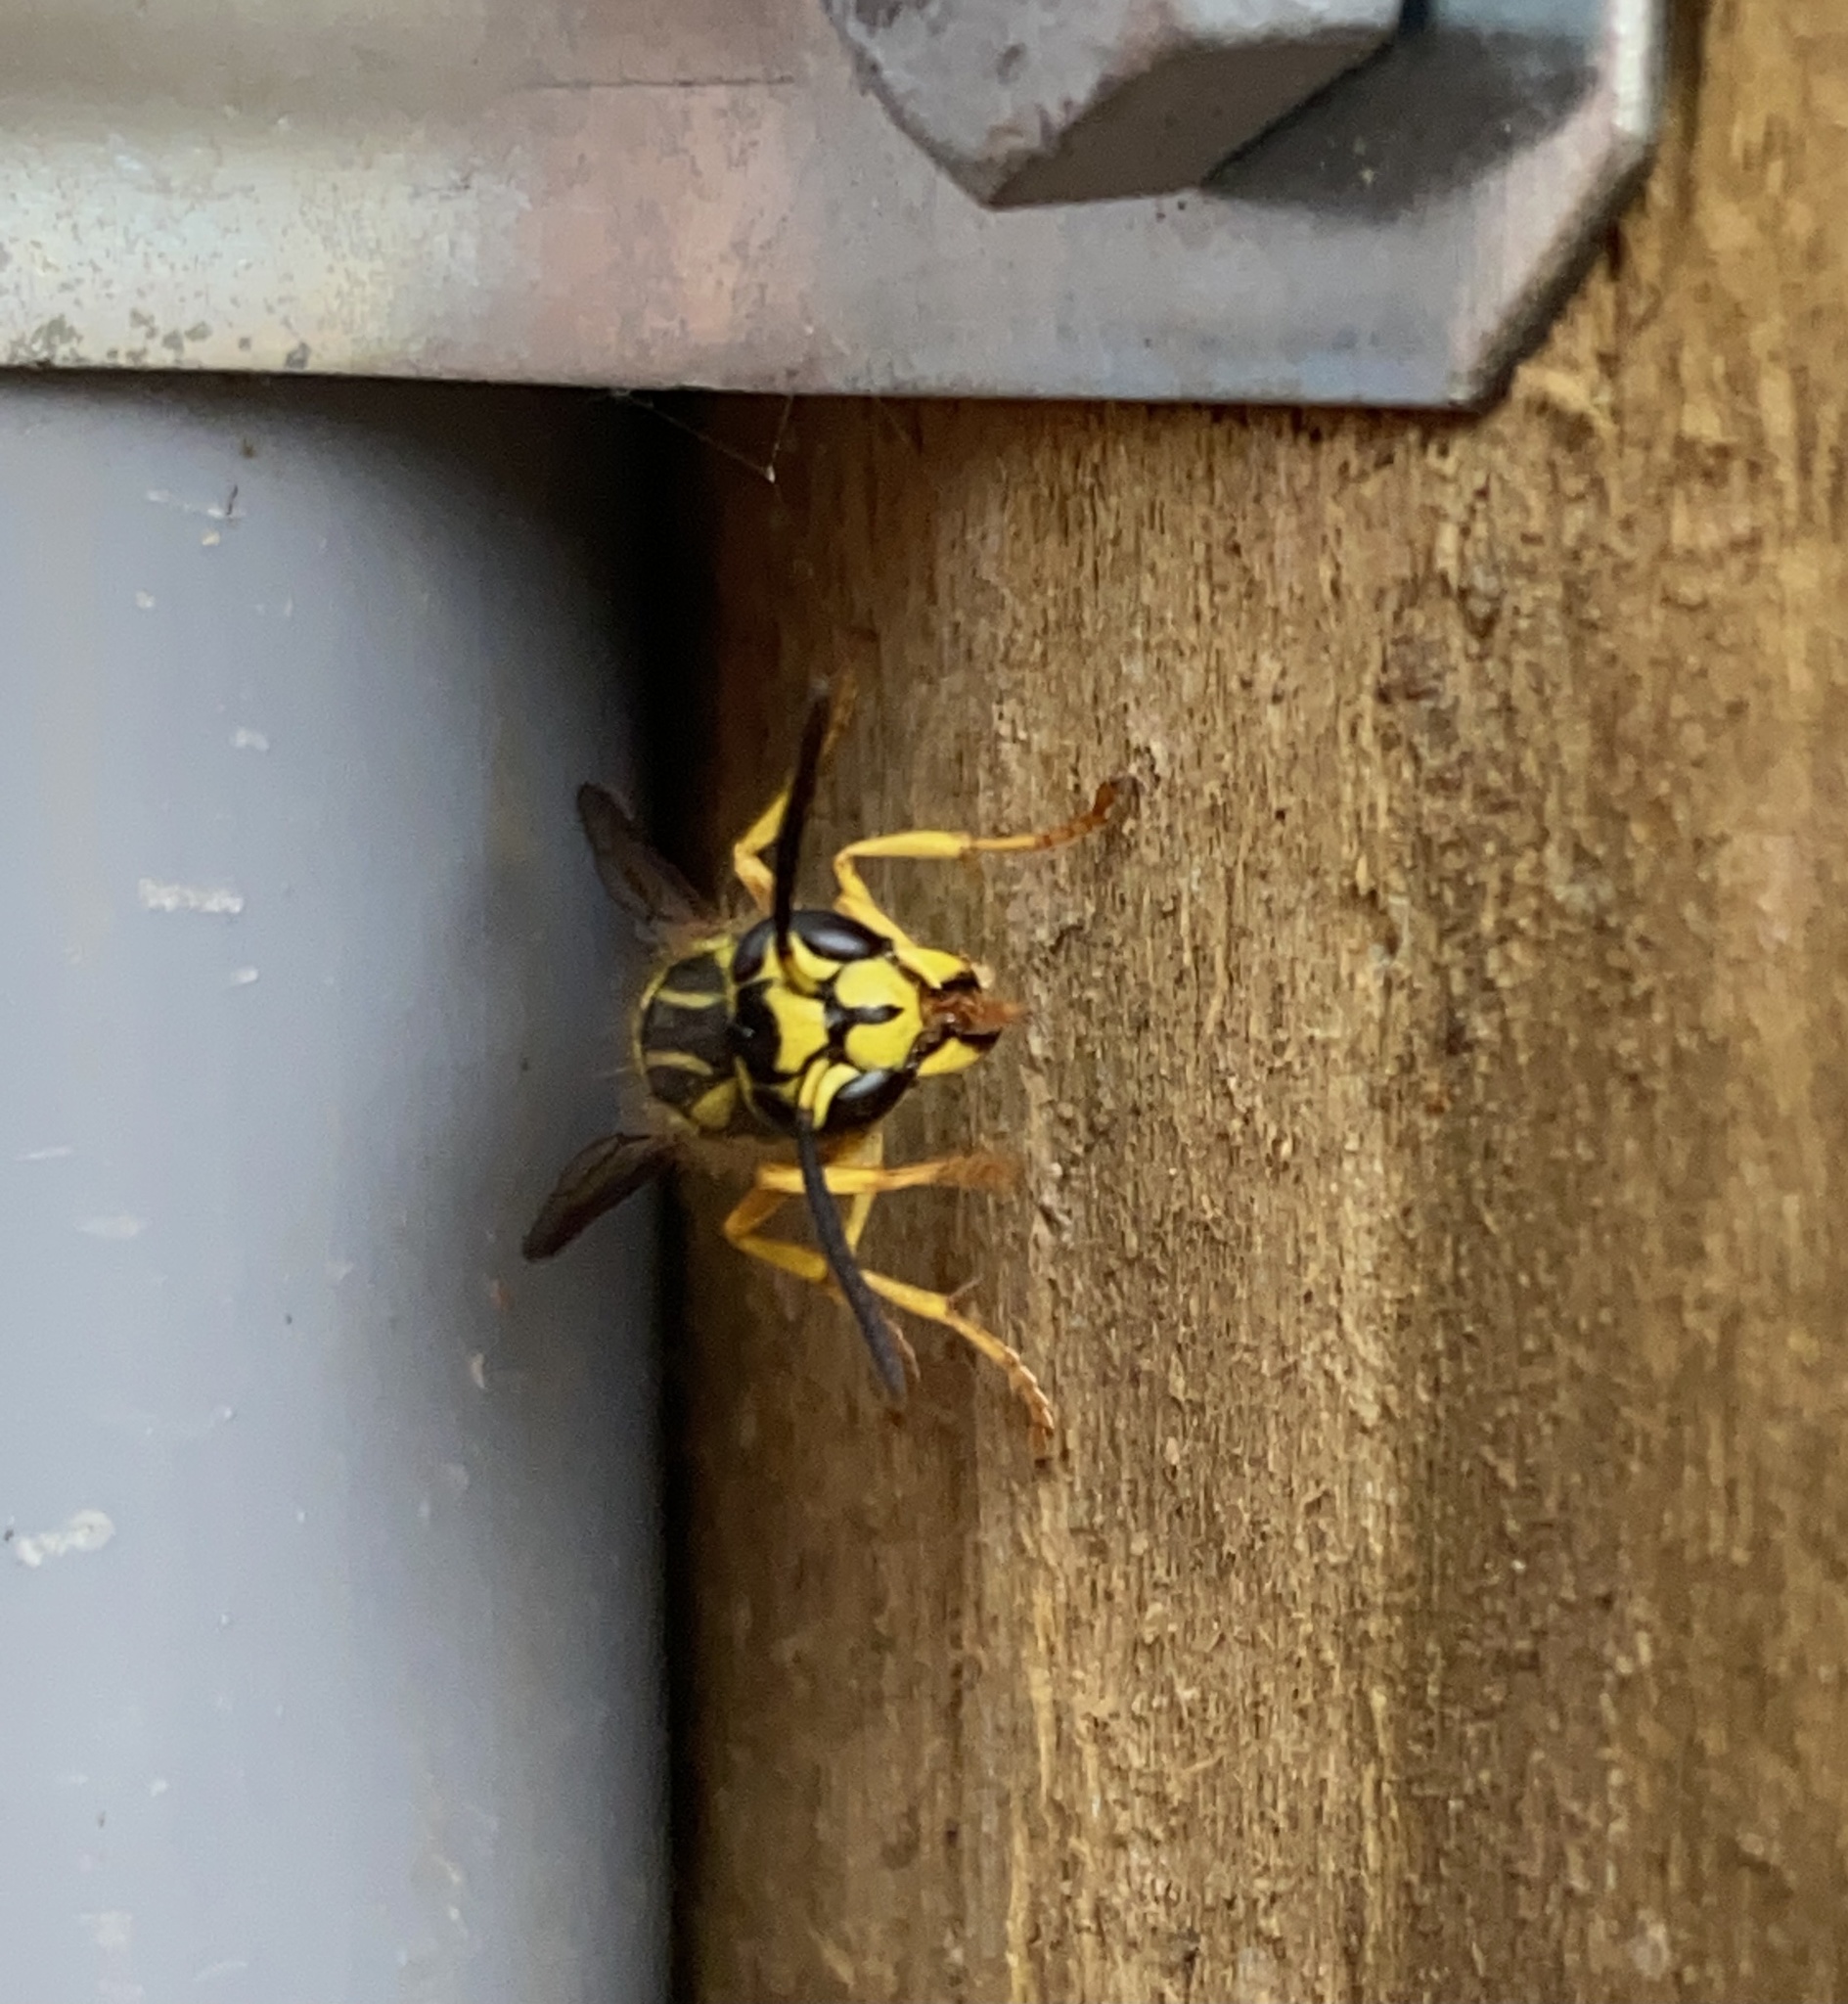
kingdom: Animalia
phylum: Arthropoda
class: Insecta
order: Hymenoptera
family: Vespidae
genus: Vespula
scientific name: Vespula squamosa
